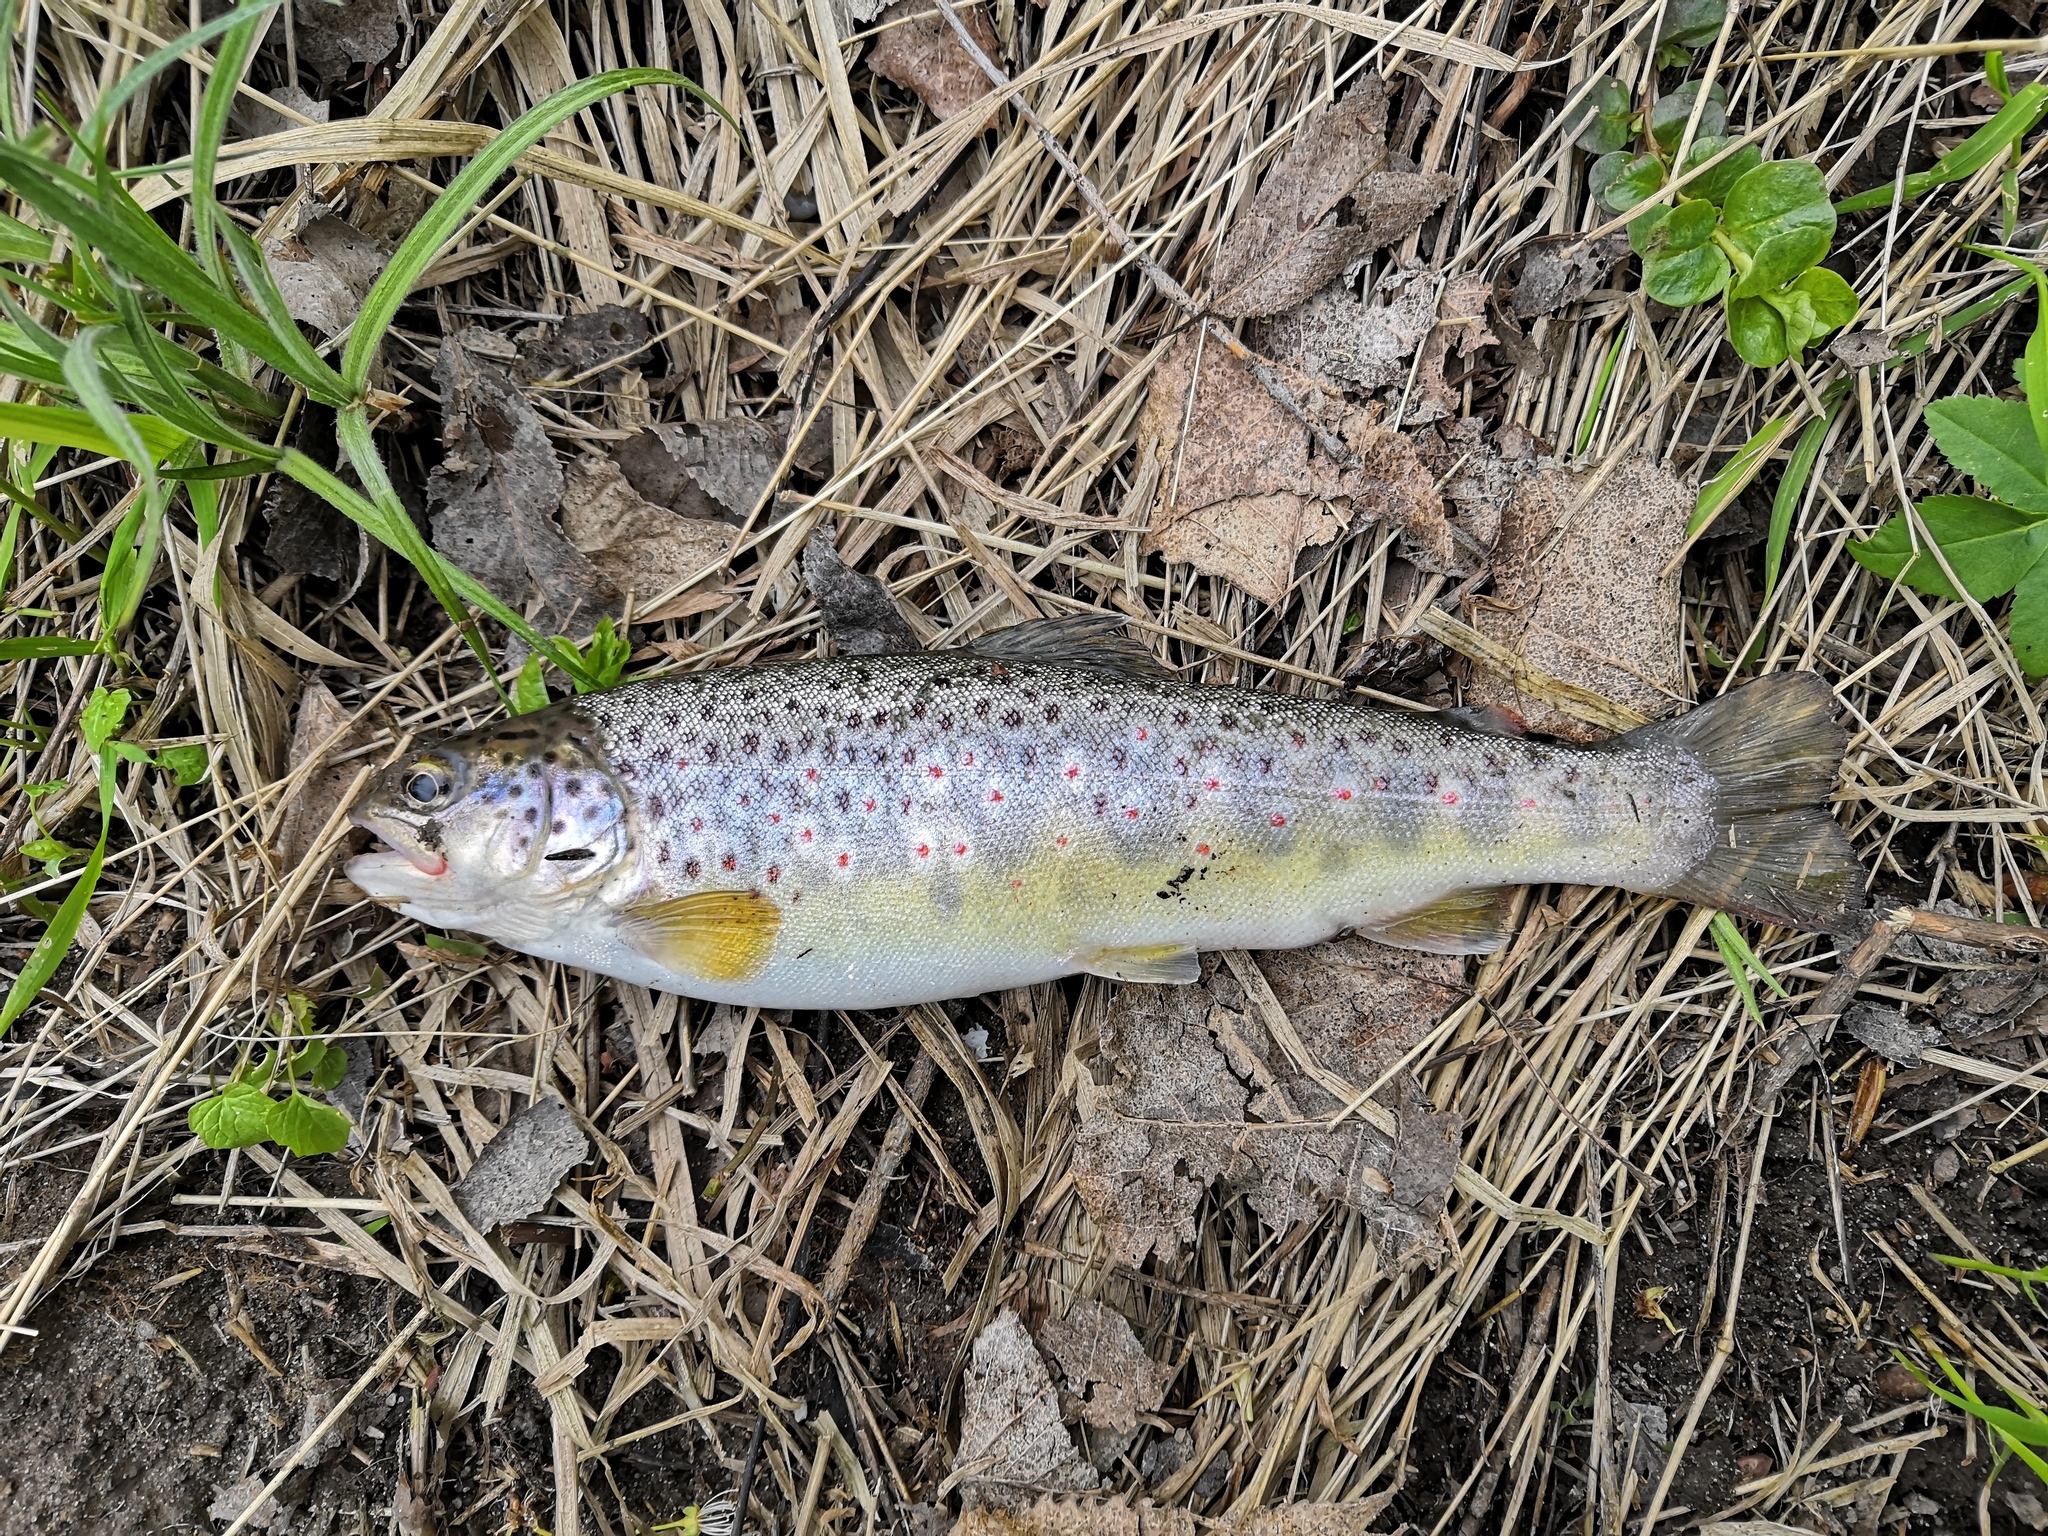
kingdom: Animalia
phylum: Chordata
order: Salmoniformes
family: Salmonidae
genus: Salmo
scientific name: Salmo trutta
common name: Brown trout
